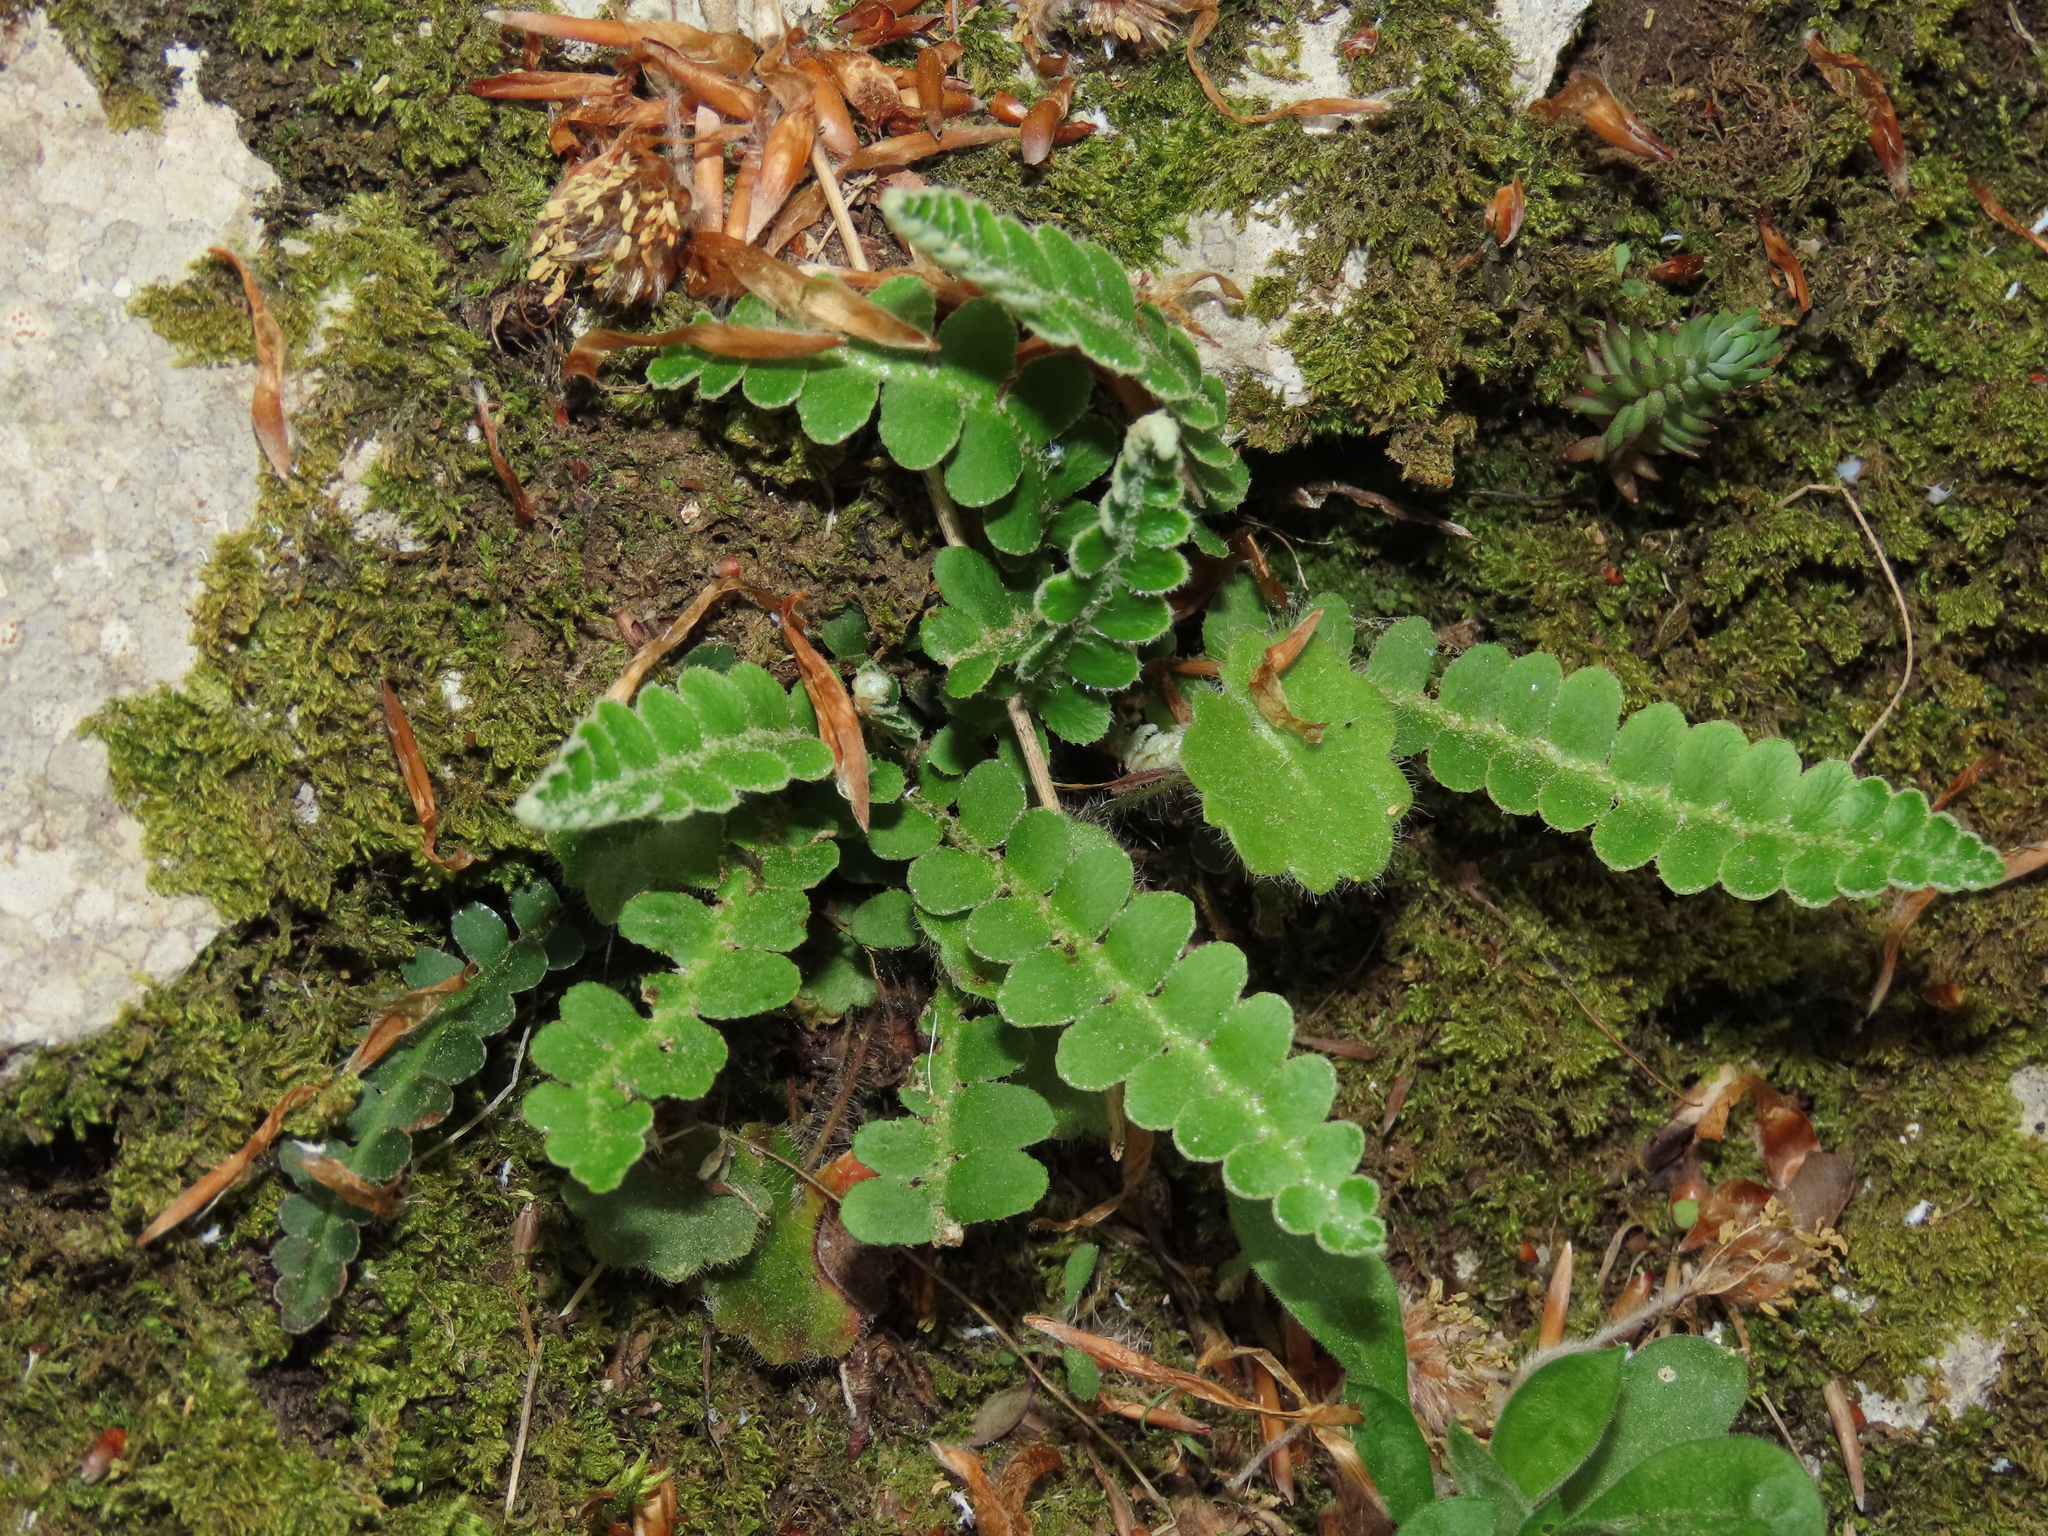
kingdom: Plantae
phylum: Tracheophyta
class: Polypodiopsida
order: Polypodiales
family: Aspleniaceae
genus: Asplenium
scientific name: Asplenium ceterach
